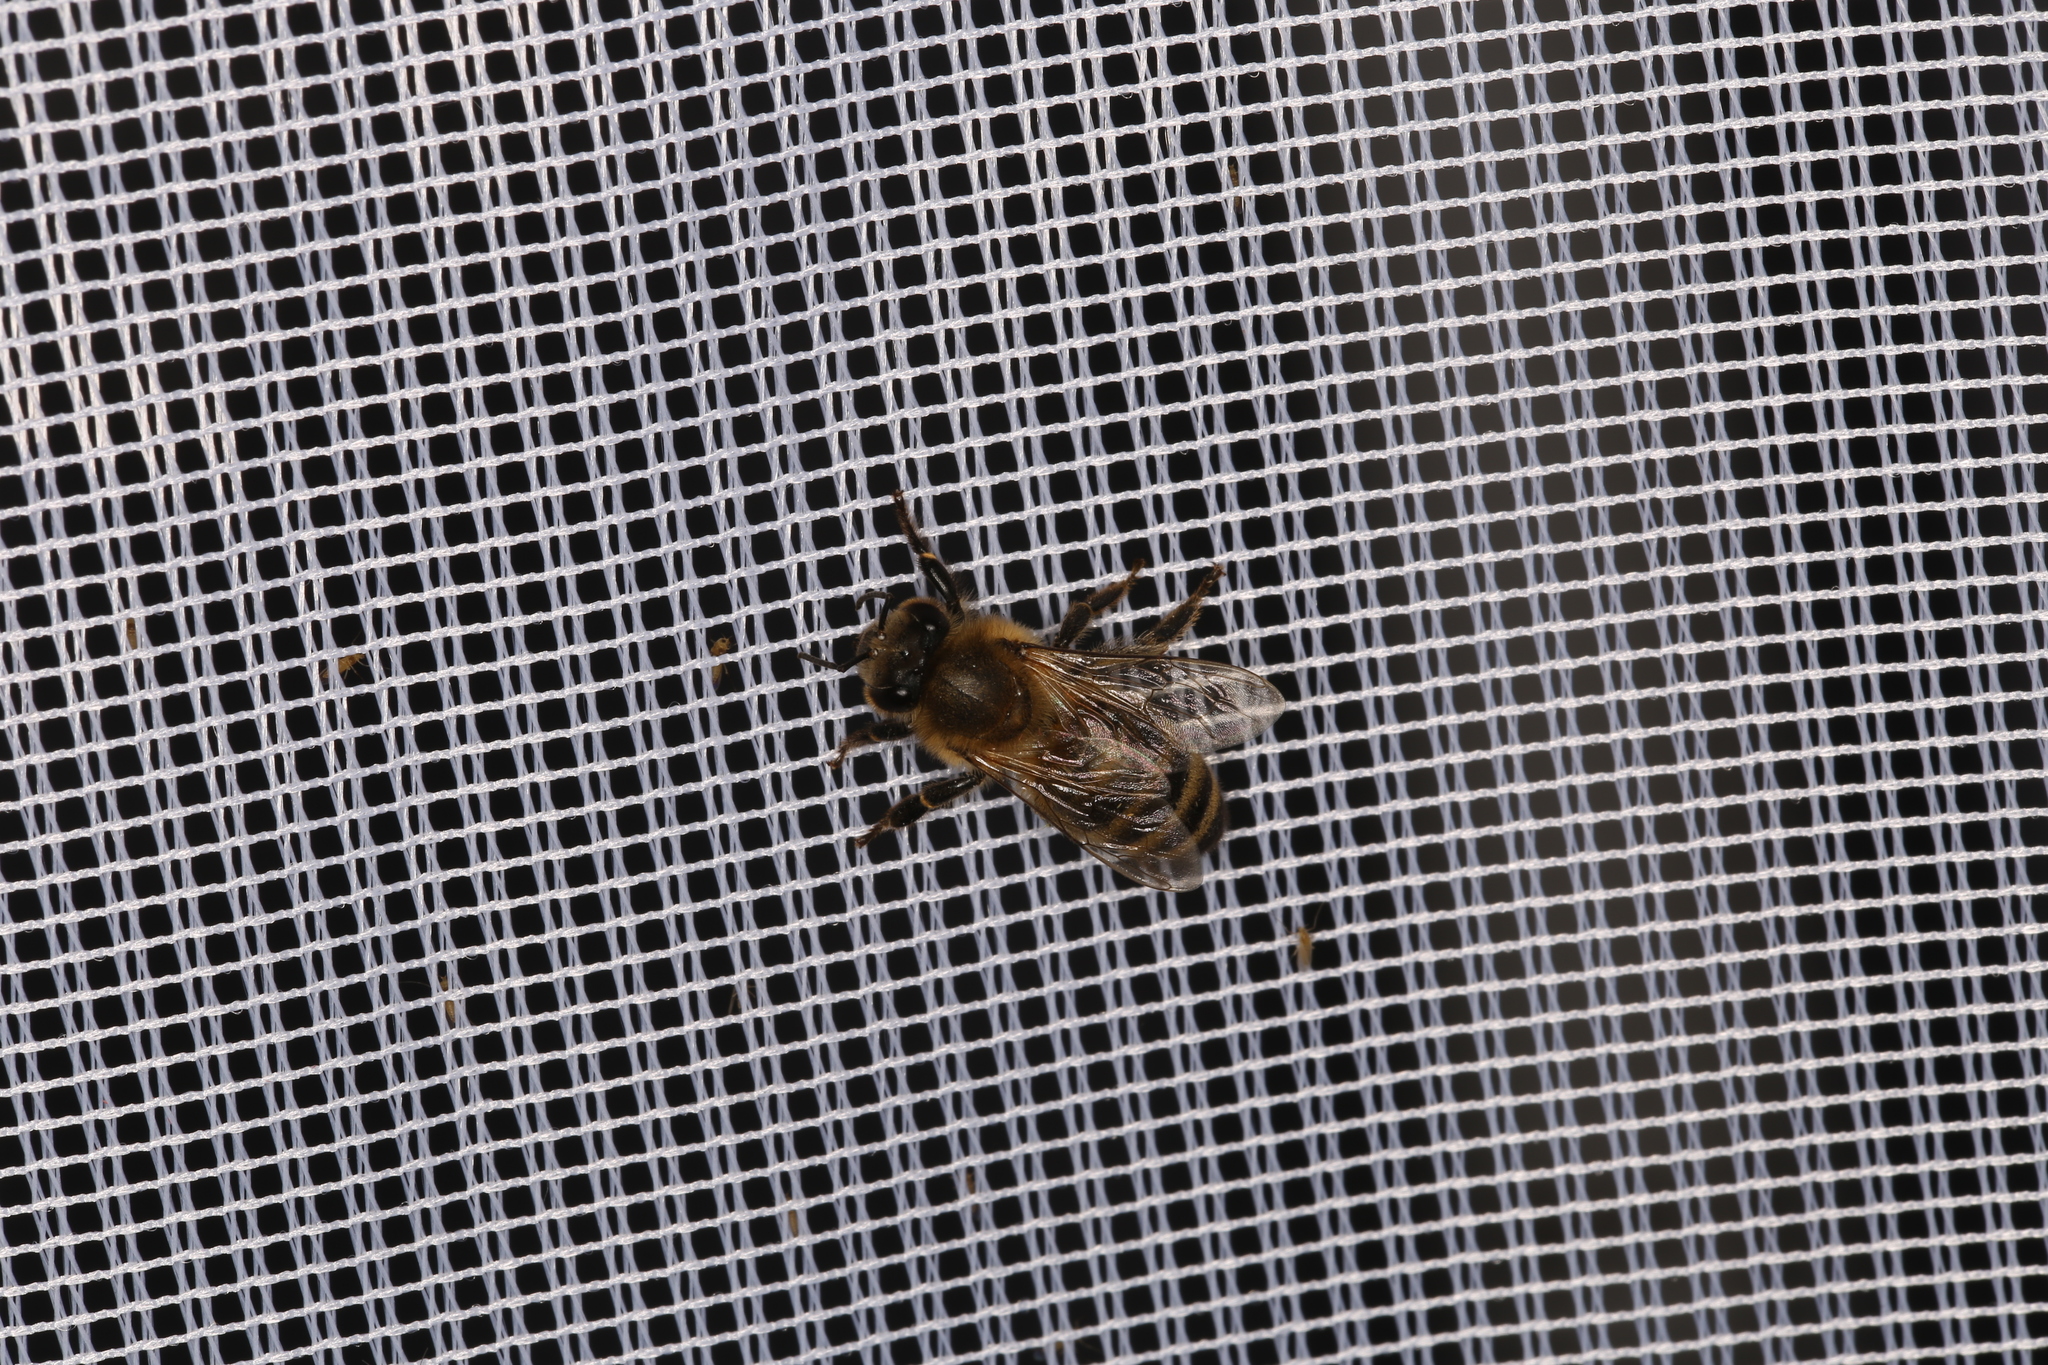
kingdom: Animalia
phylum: Arthropoda
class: Insecta
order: Hymenoptera
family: Apidae
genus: Apis
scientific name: Apis mellifera
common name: Honey bee
